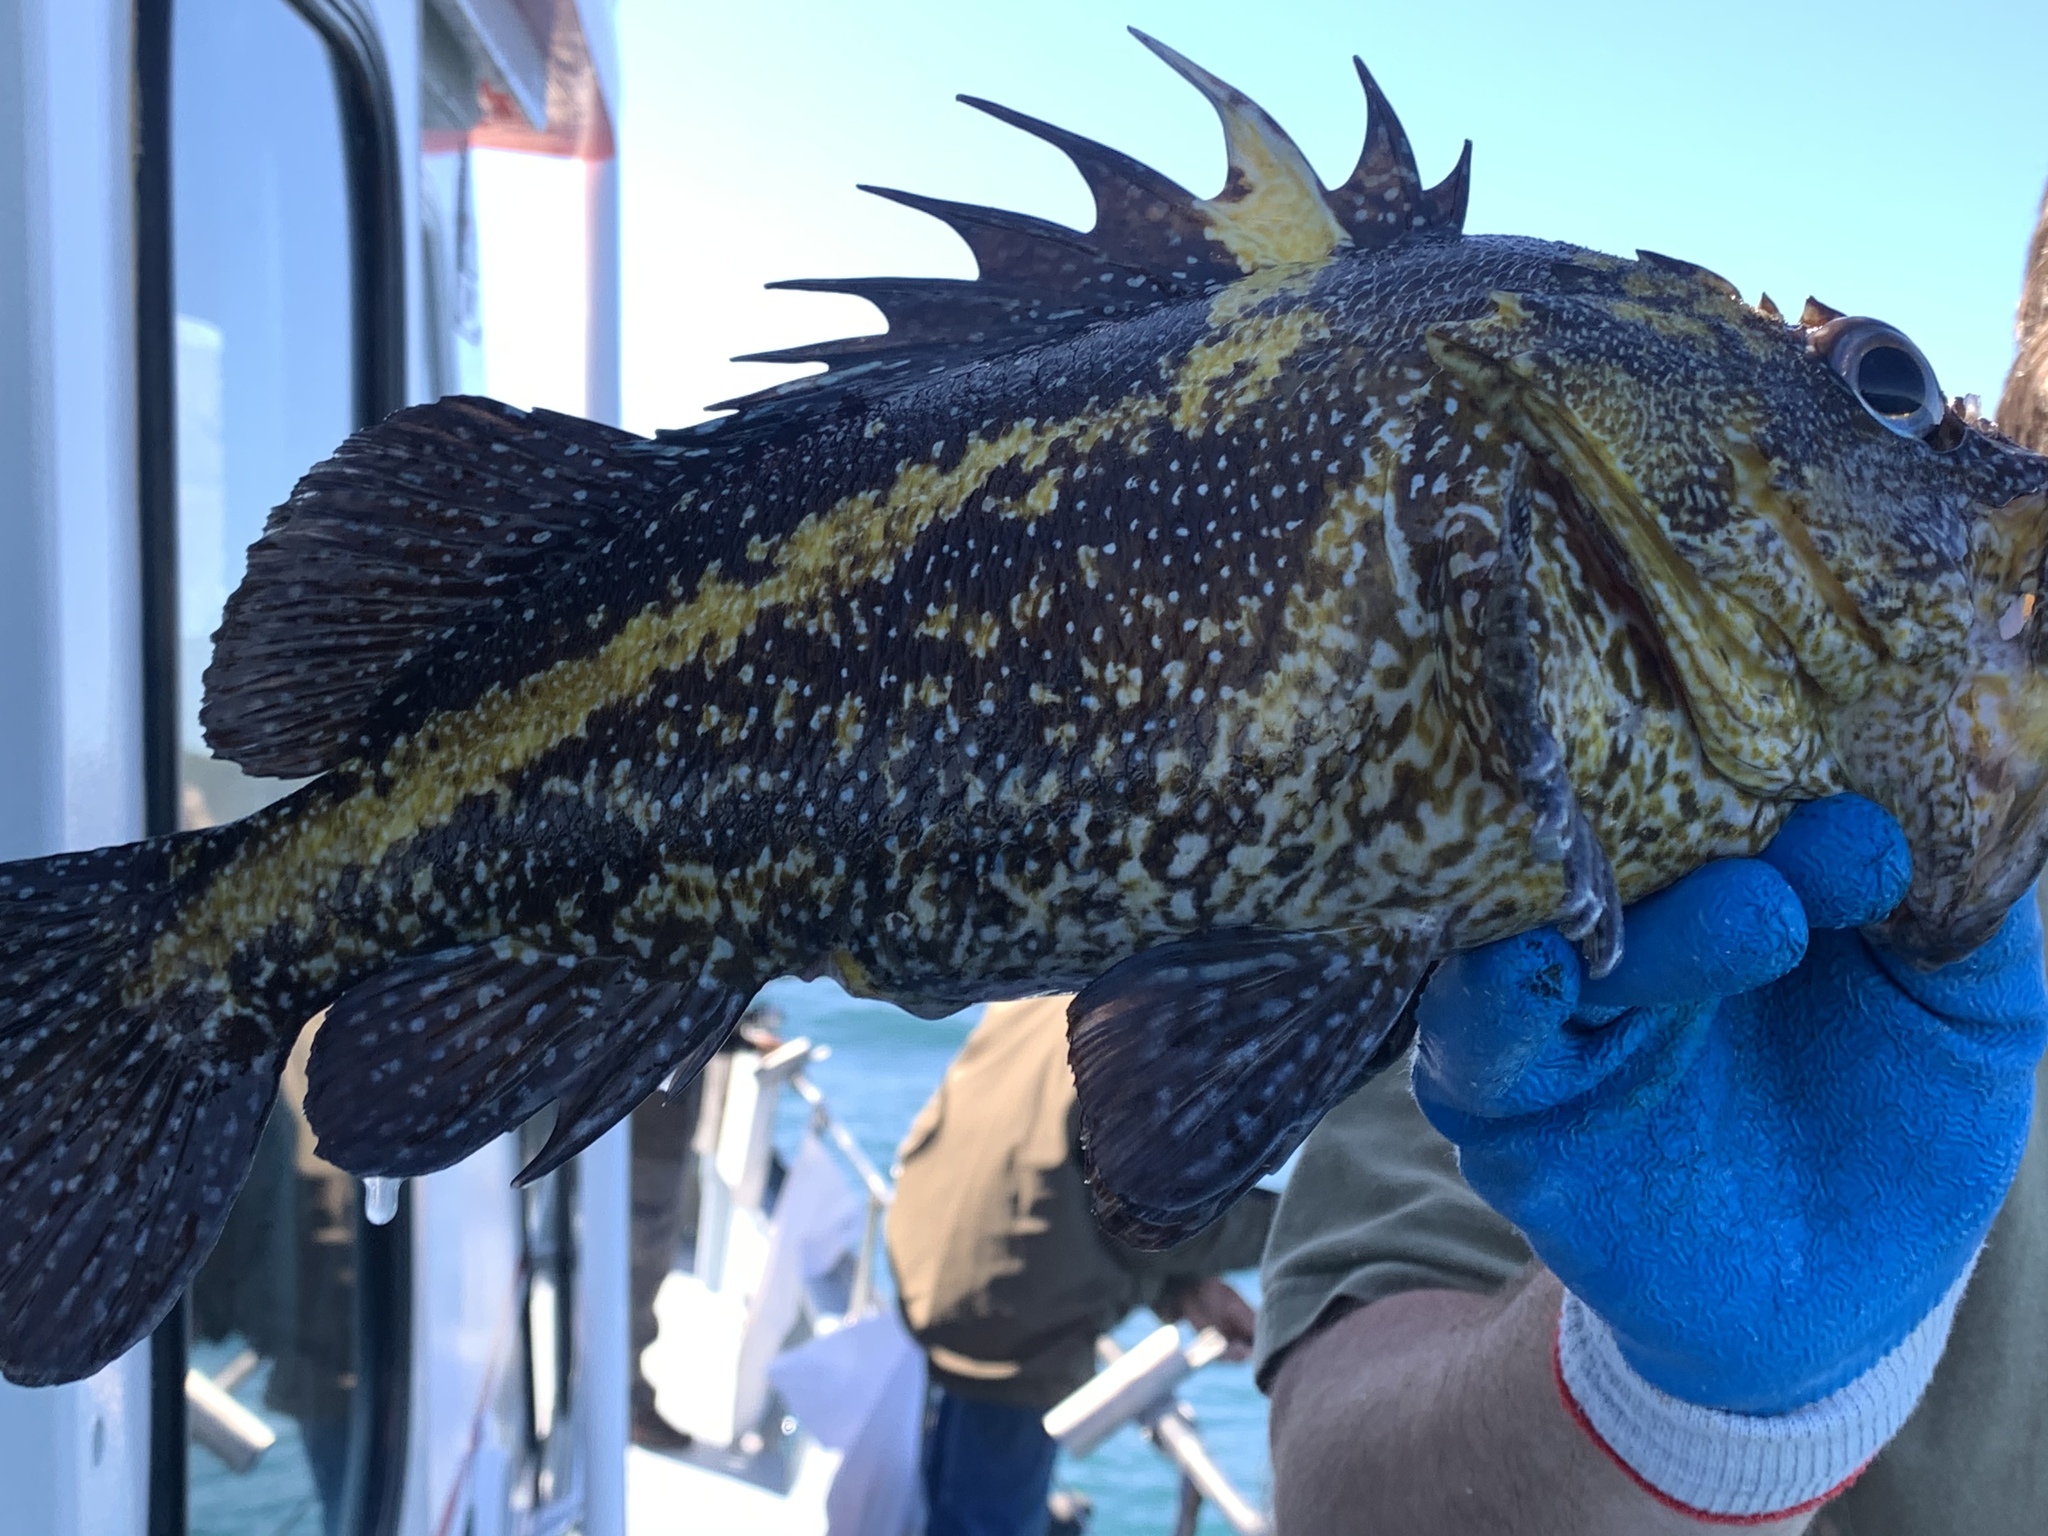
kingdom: Animalia
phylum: Chordata
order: Scorpaeniformes
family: Sebastidae
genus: Sebastes
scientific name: Sebastes nebulosus
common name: China rockfish
